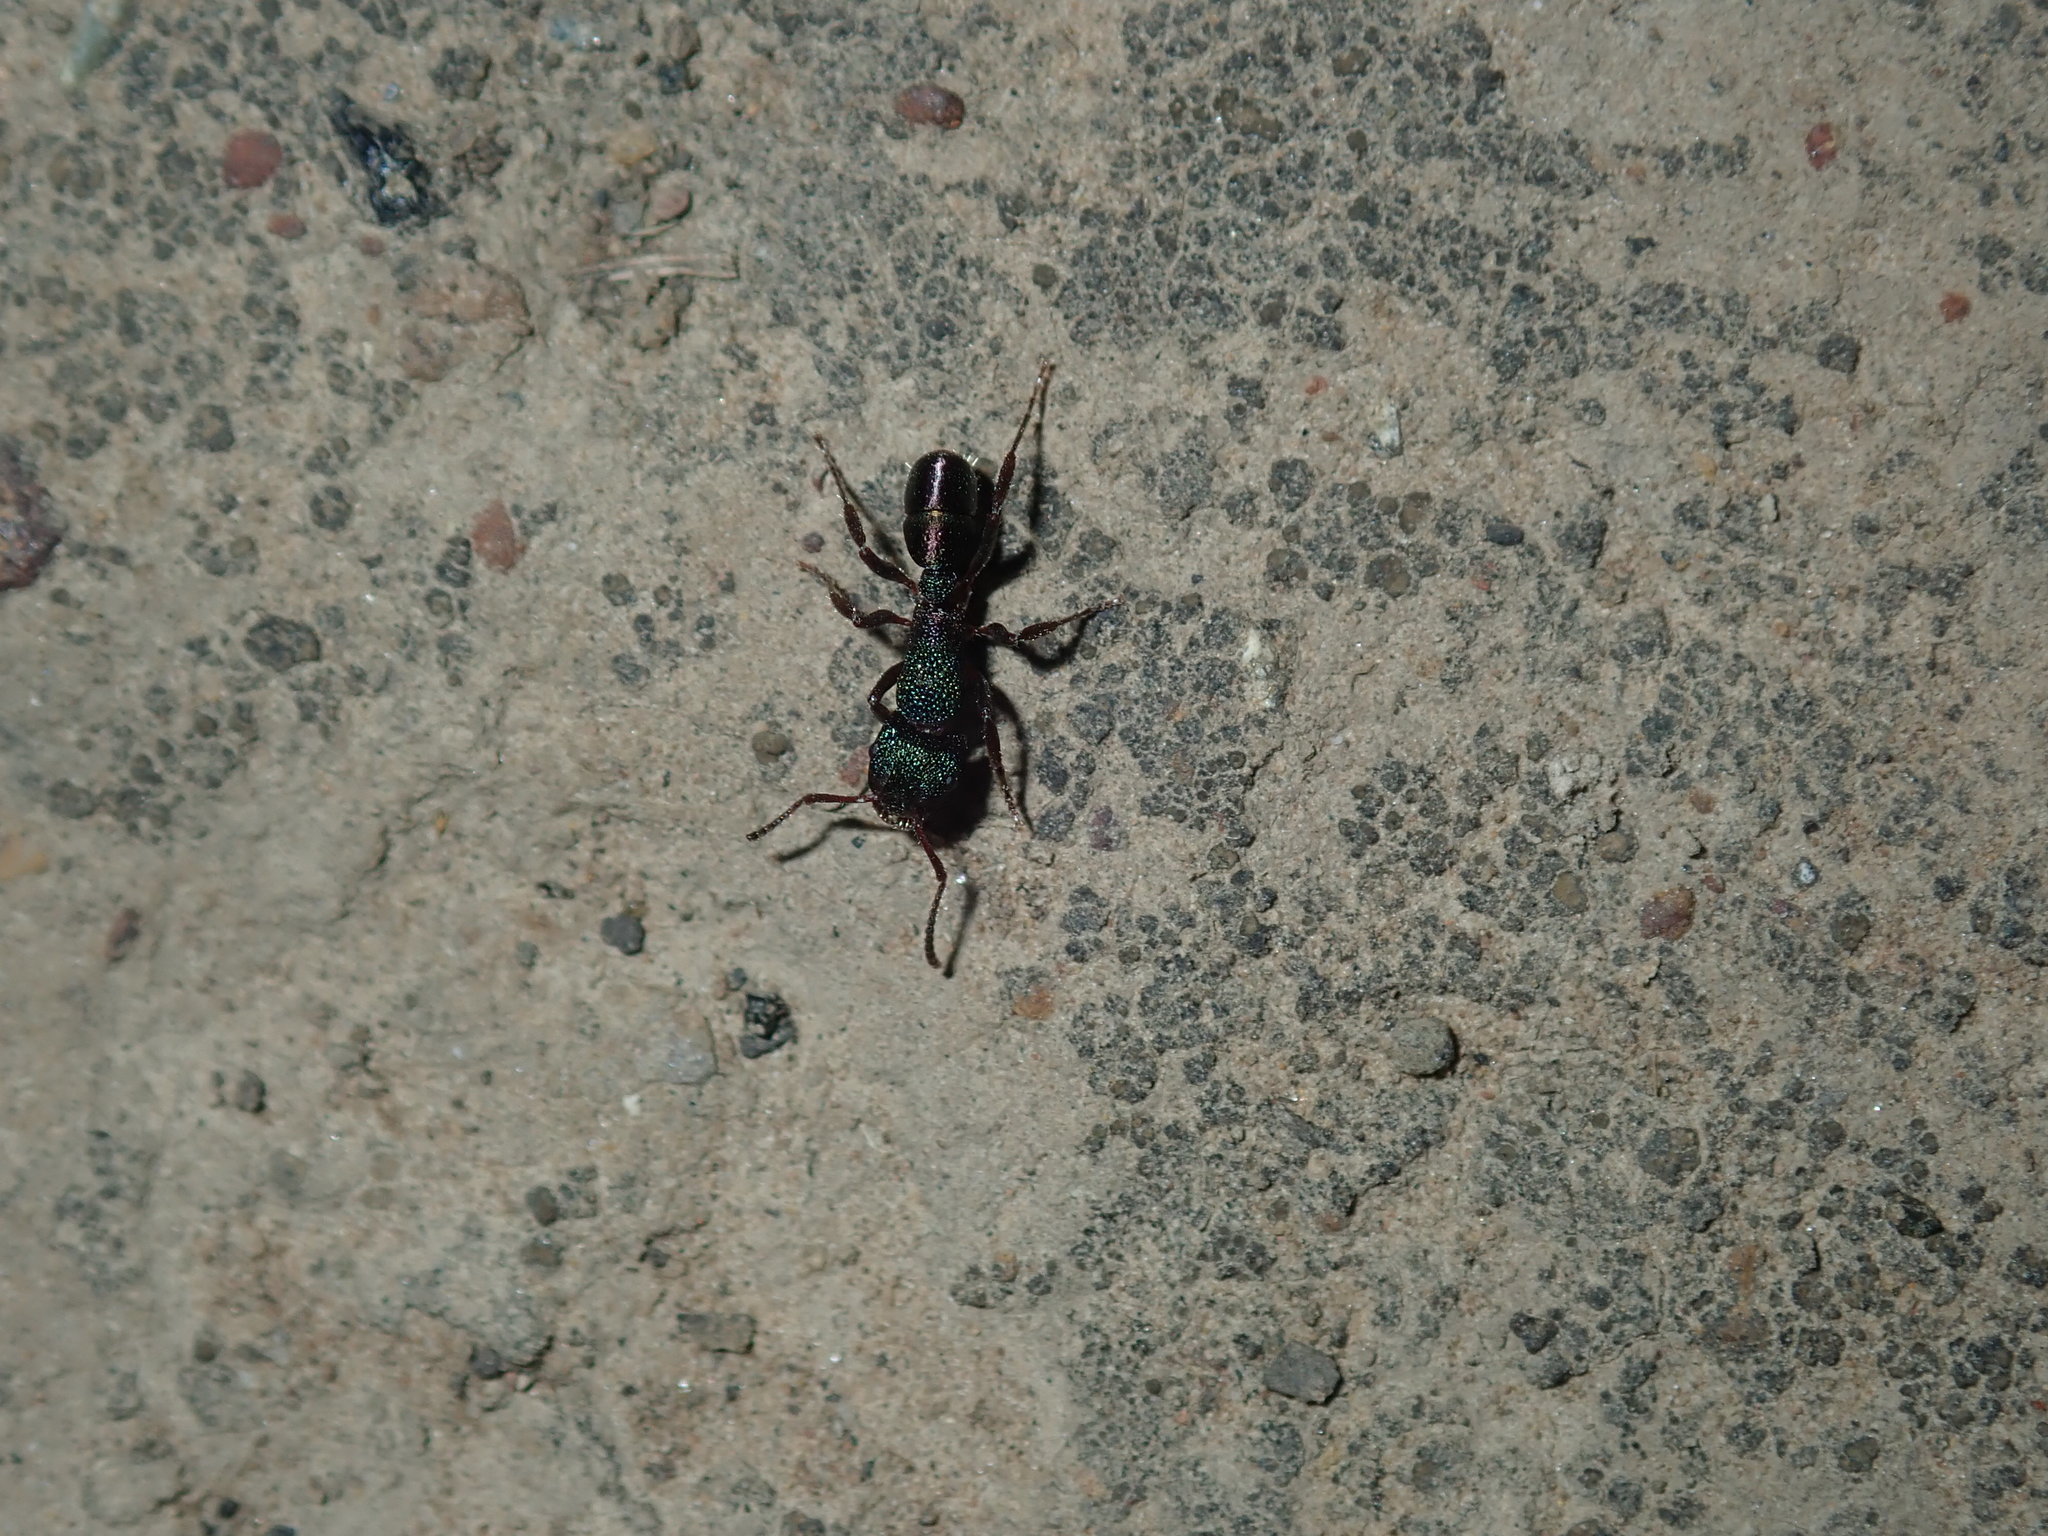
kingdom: Animalia
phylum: Arthropoda
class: Insecta
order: Hymenoptera
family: Formicidae
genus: Rhytidoponera
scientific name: Rhytidoponera metallica
